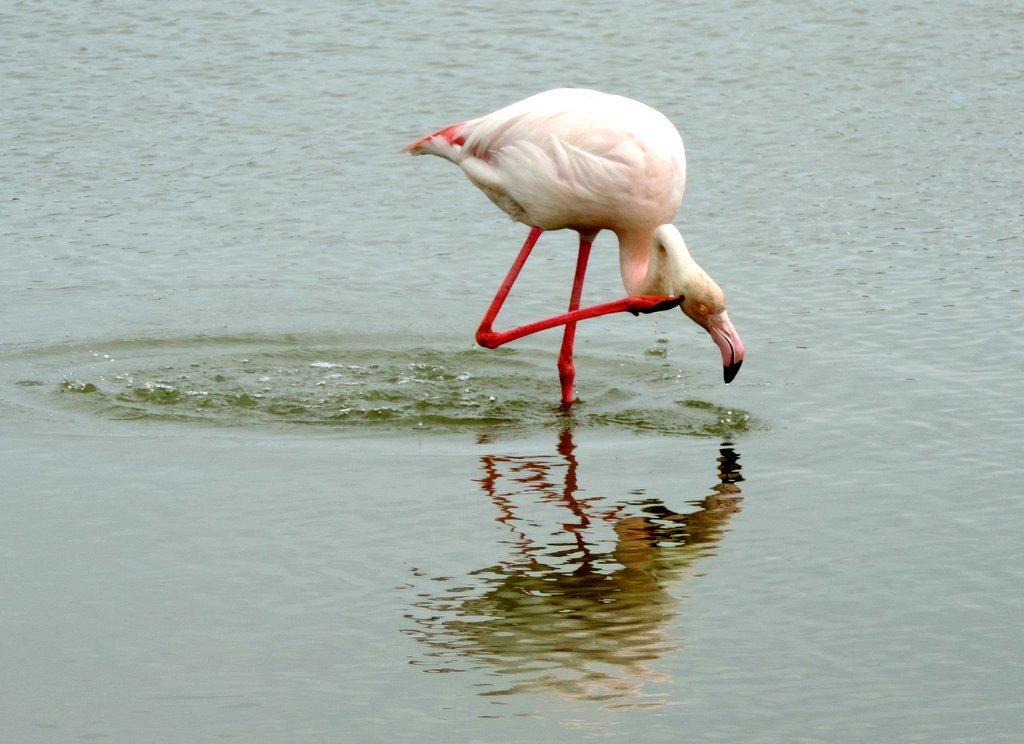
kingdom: Animalia
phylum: Chordata
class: Aves
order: Phoenicopteriformes
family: Phoenicopteridae
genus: Phoenicopterus
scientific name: Phoenicopterus roseus
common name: Greater flamingo
